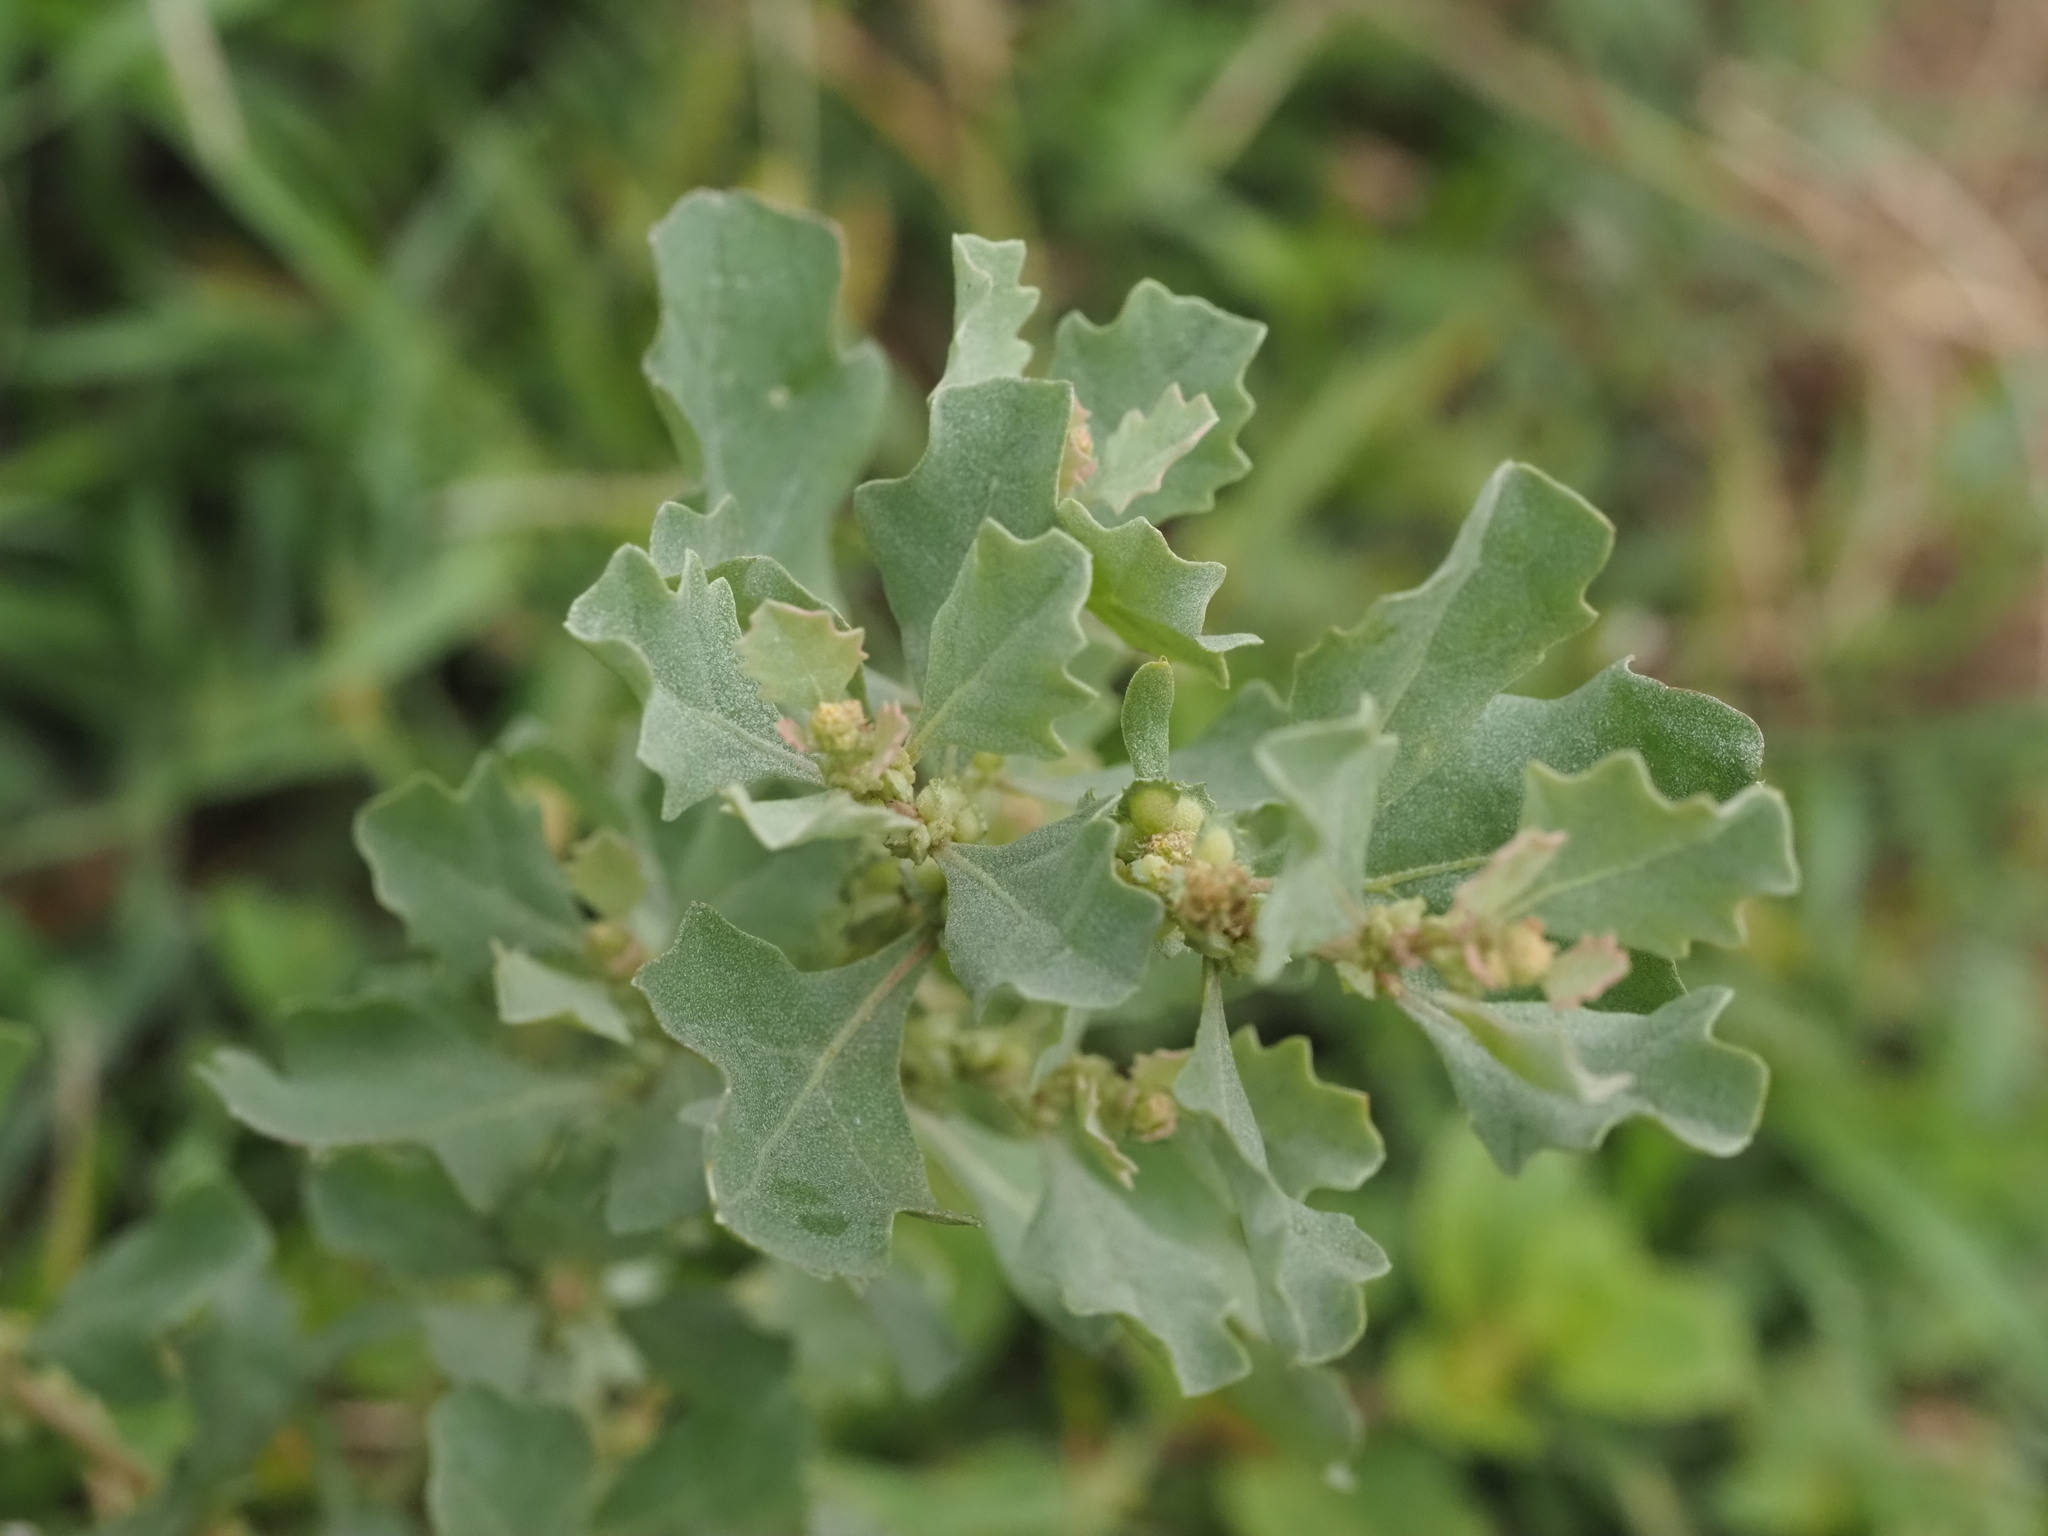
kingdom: Plantae
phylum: Tracheophyta
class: Magnoliopsida
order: Caryophyllales
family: Amaranthaceae
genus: Atriplex
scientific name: Atriplex muelleri
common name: Mueller's saltbush
